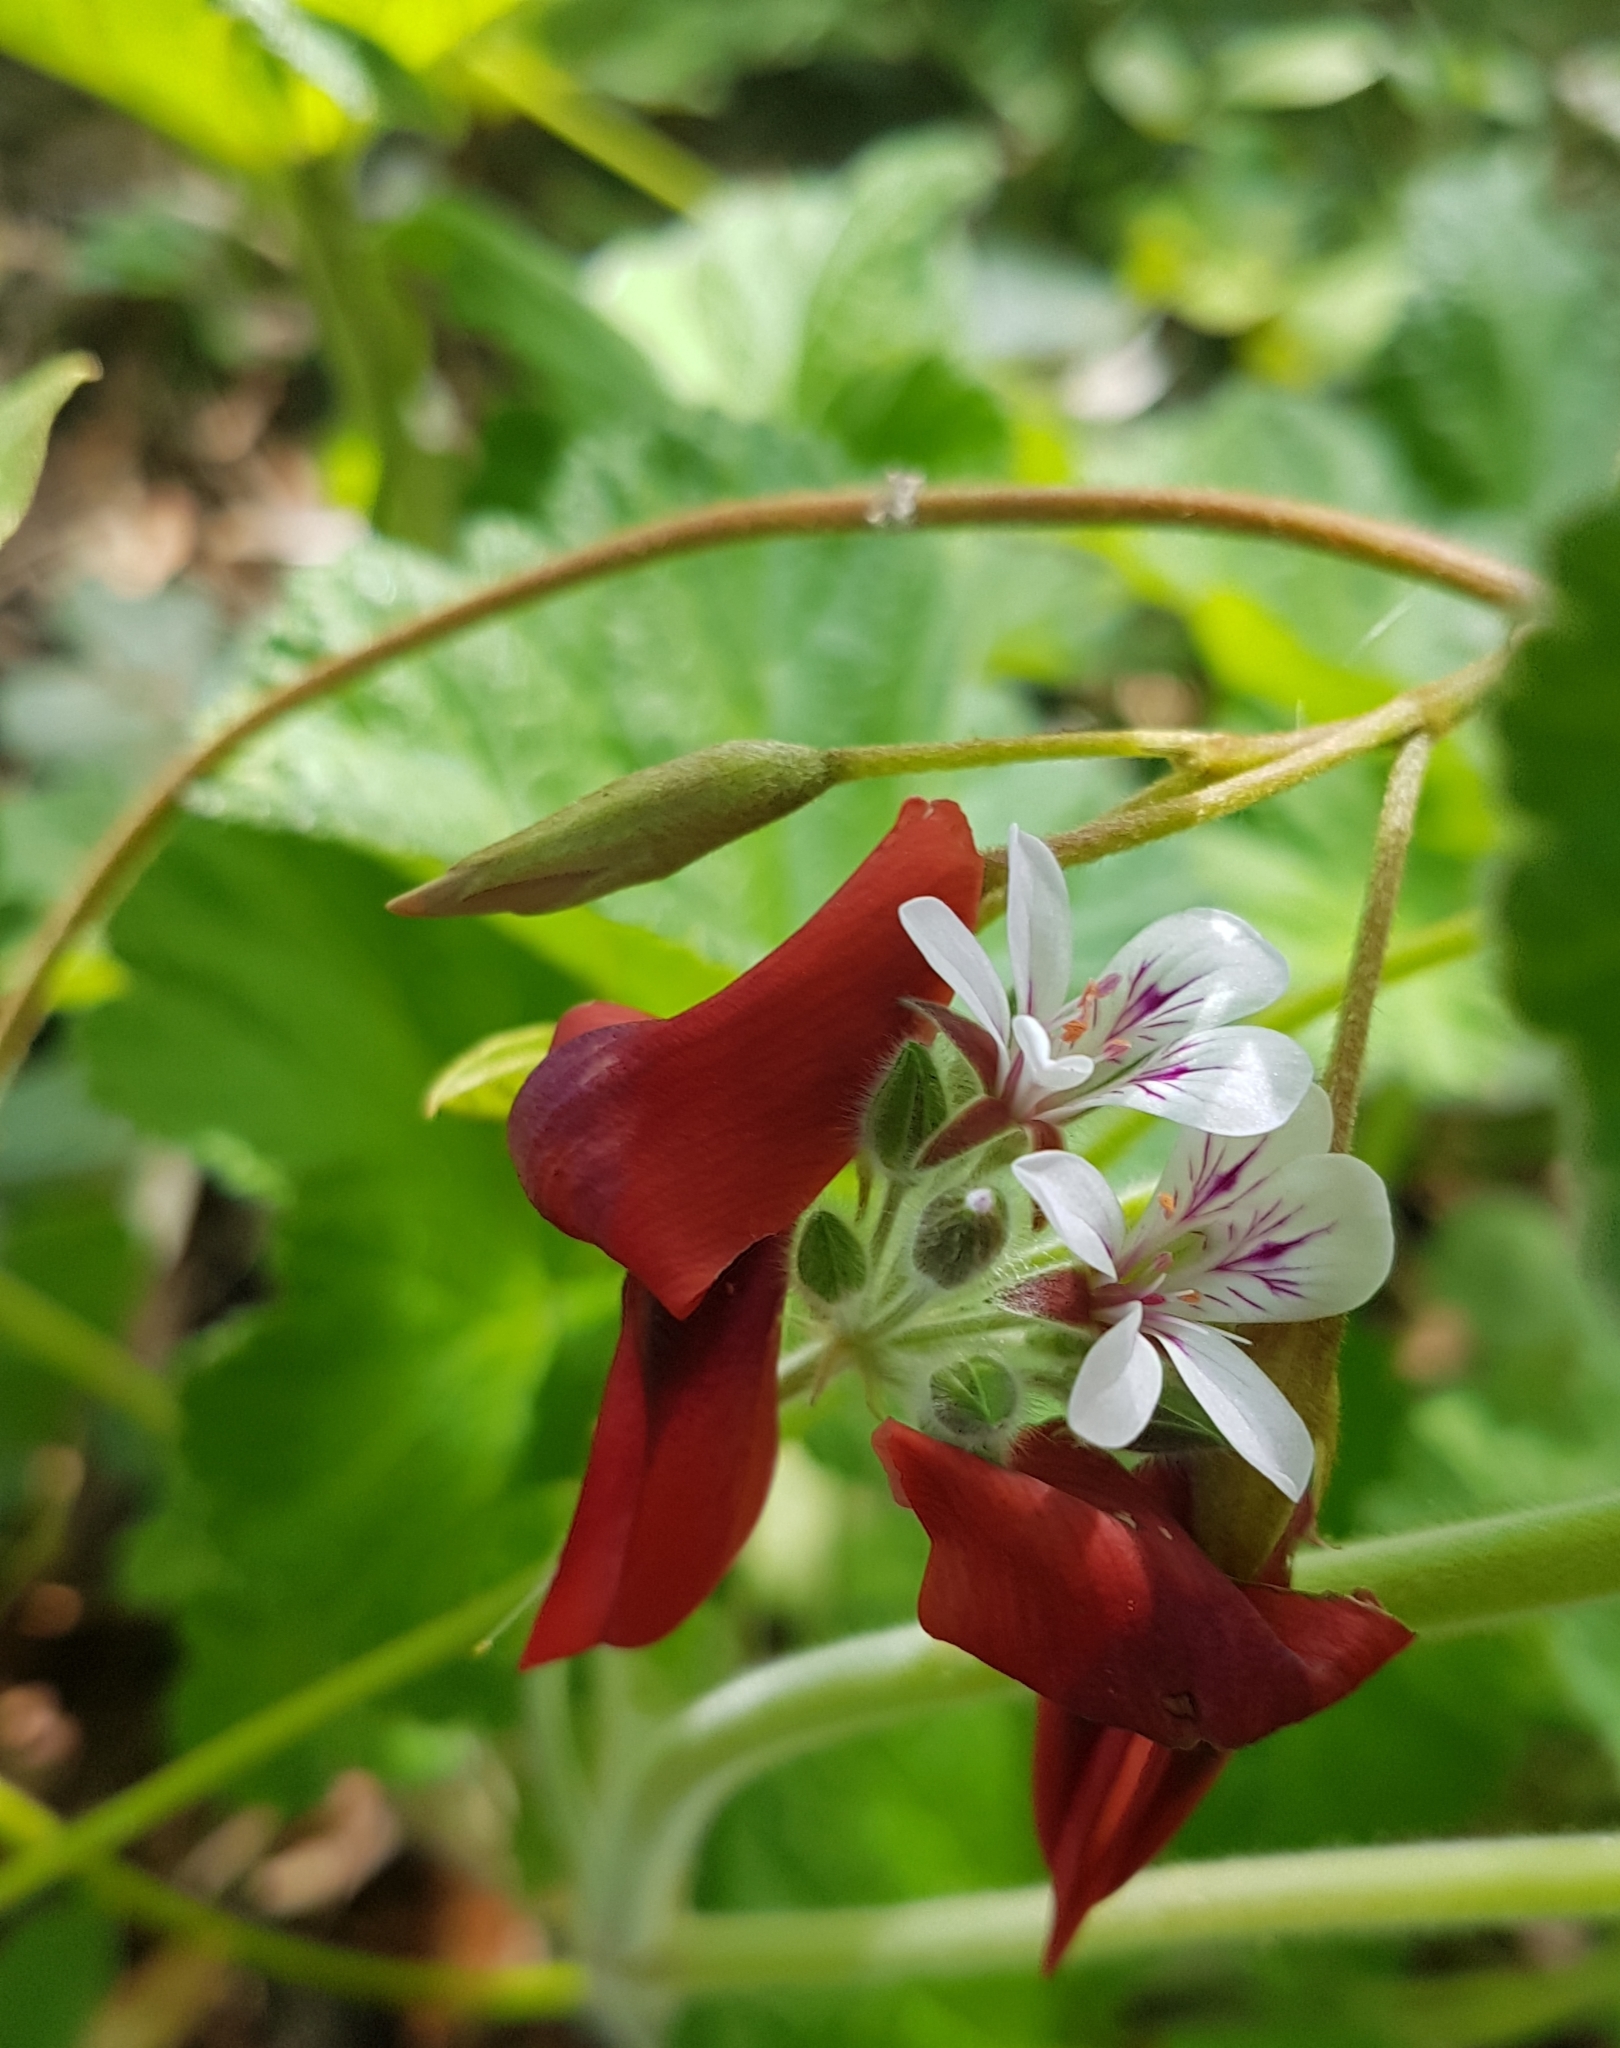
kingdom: Plantae
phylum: Tracheophyta
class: Magnoliopsida
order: Fabales
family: Fabaceae
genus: Kennedia
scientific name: Kennedia rubicunda
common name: Red kennedy-pea
